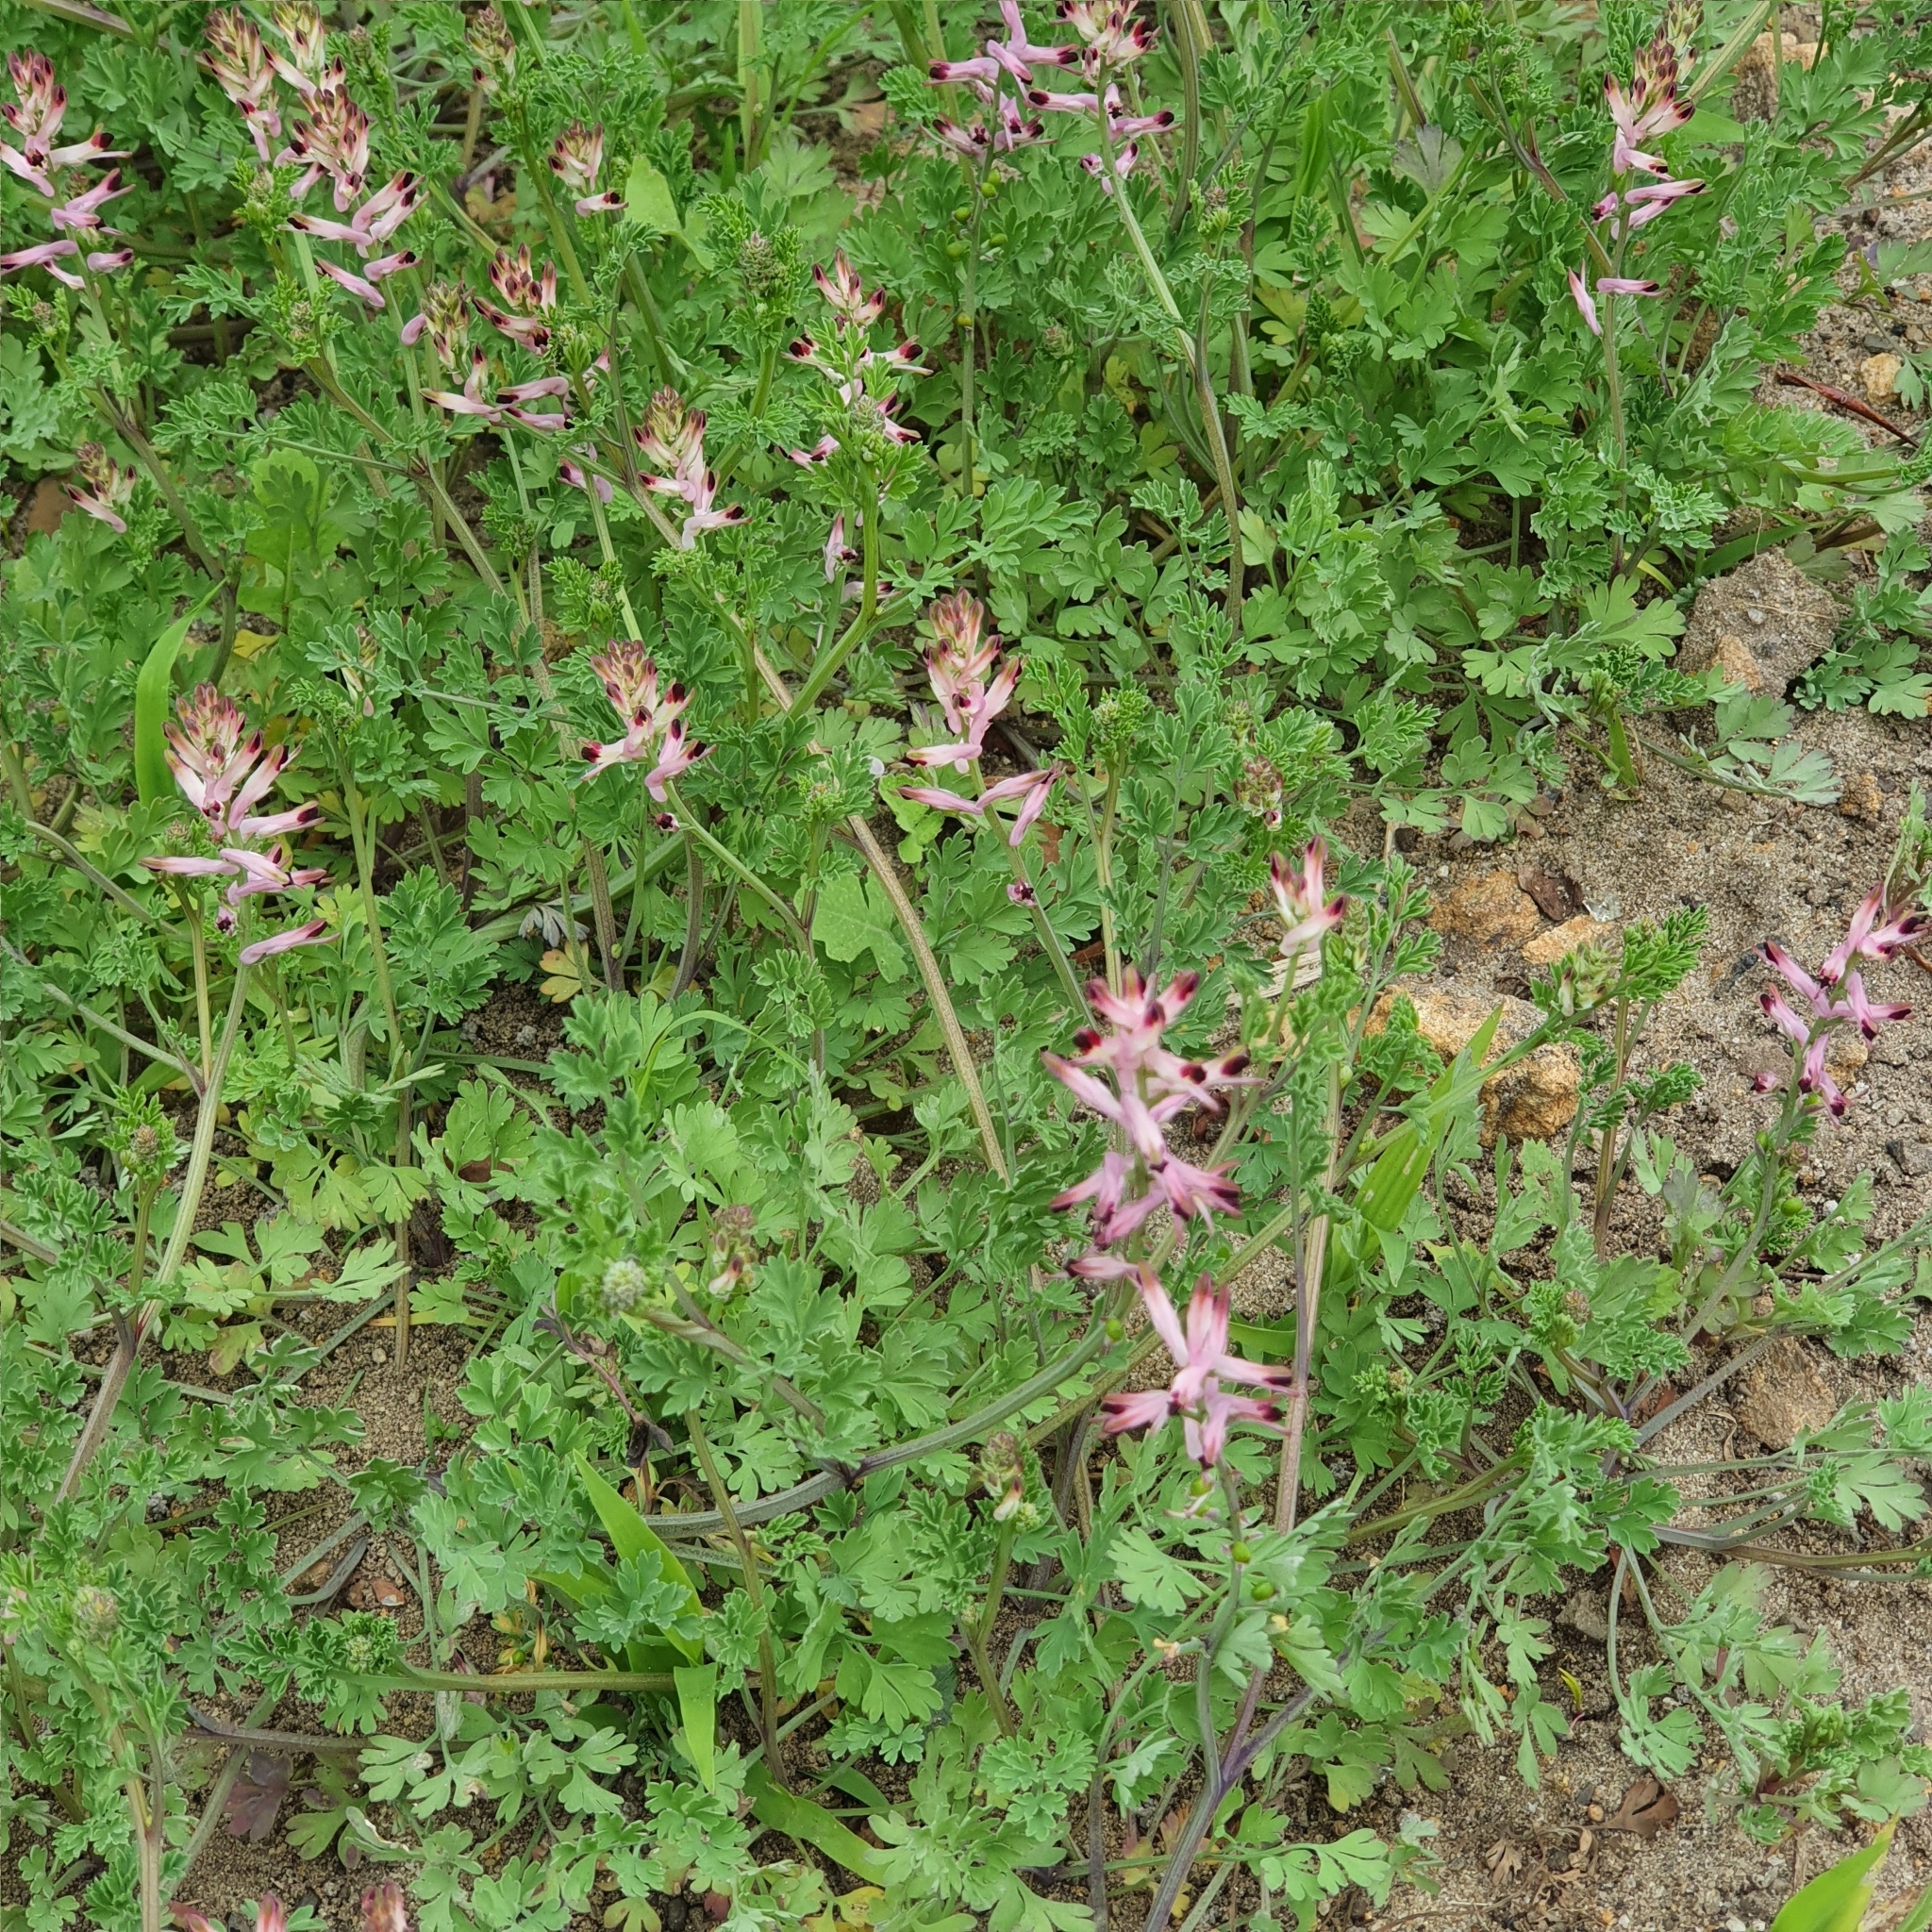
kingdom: Plantae
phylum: Tracheophyta
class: Magnoliopsida
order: Ranunculales
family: Papaveraceae
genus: Fumaria
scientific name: Fumaria bastardii
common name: Tall ramping-fumitory
